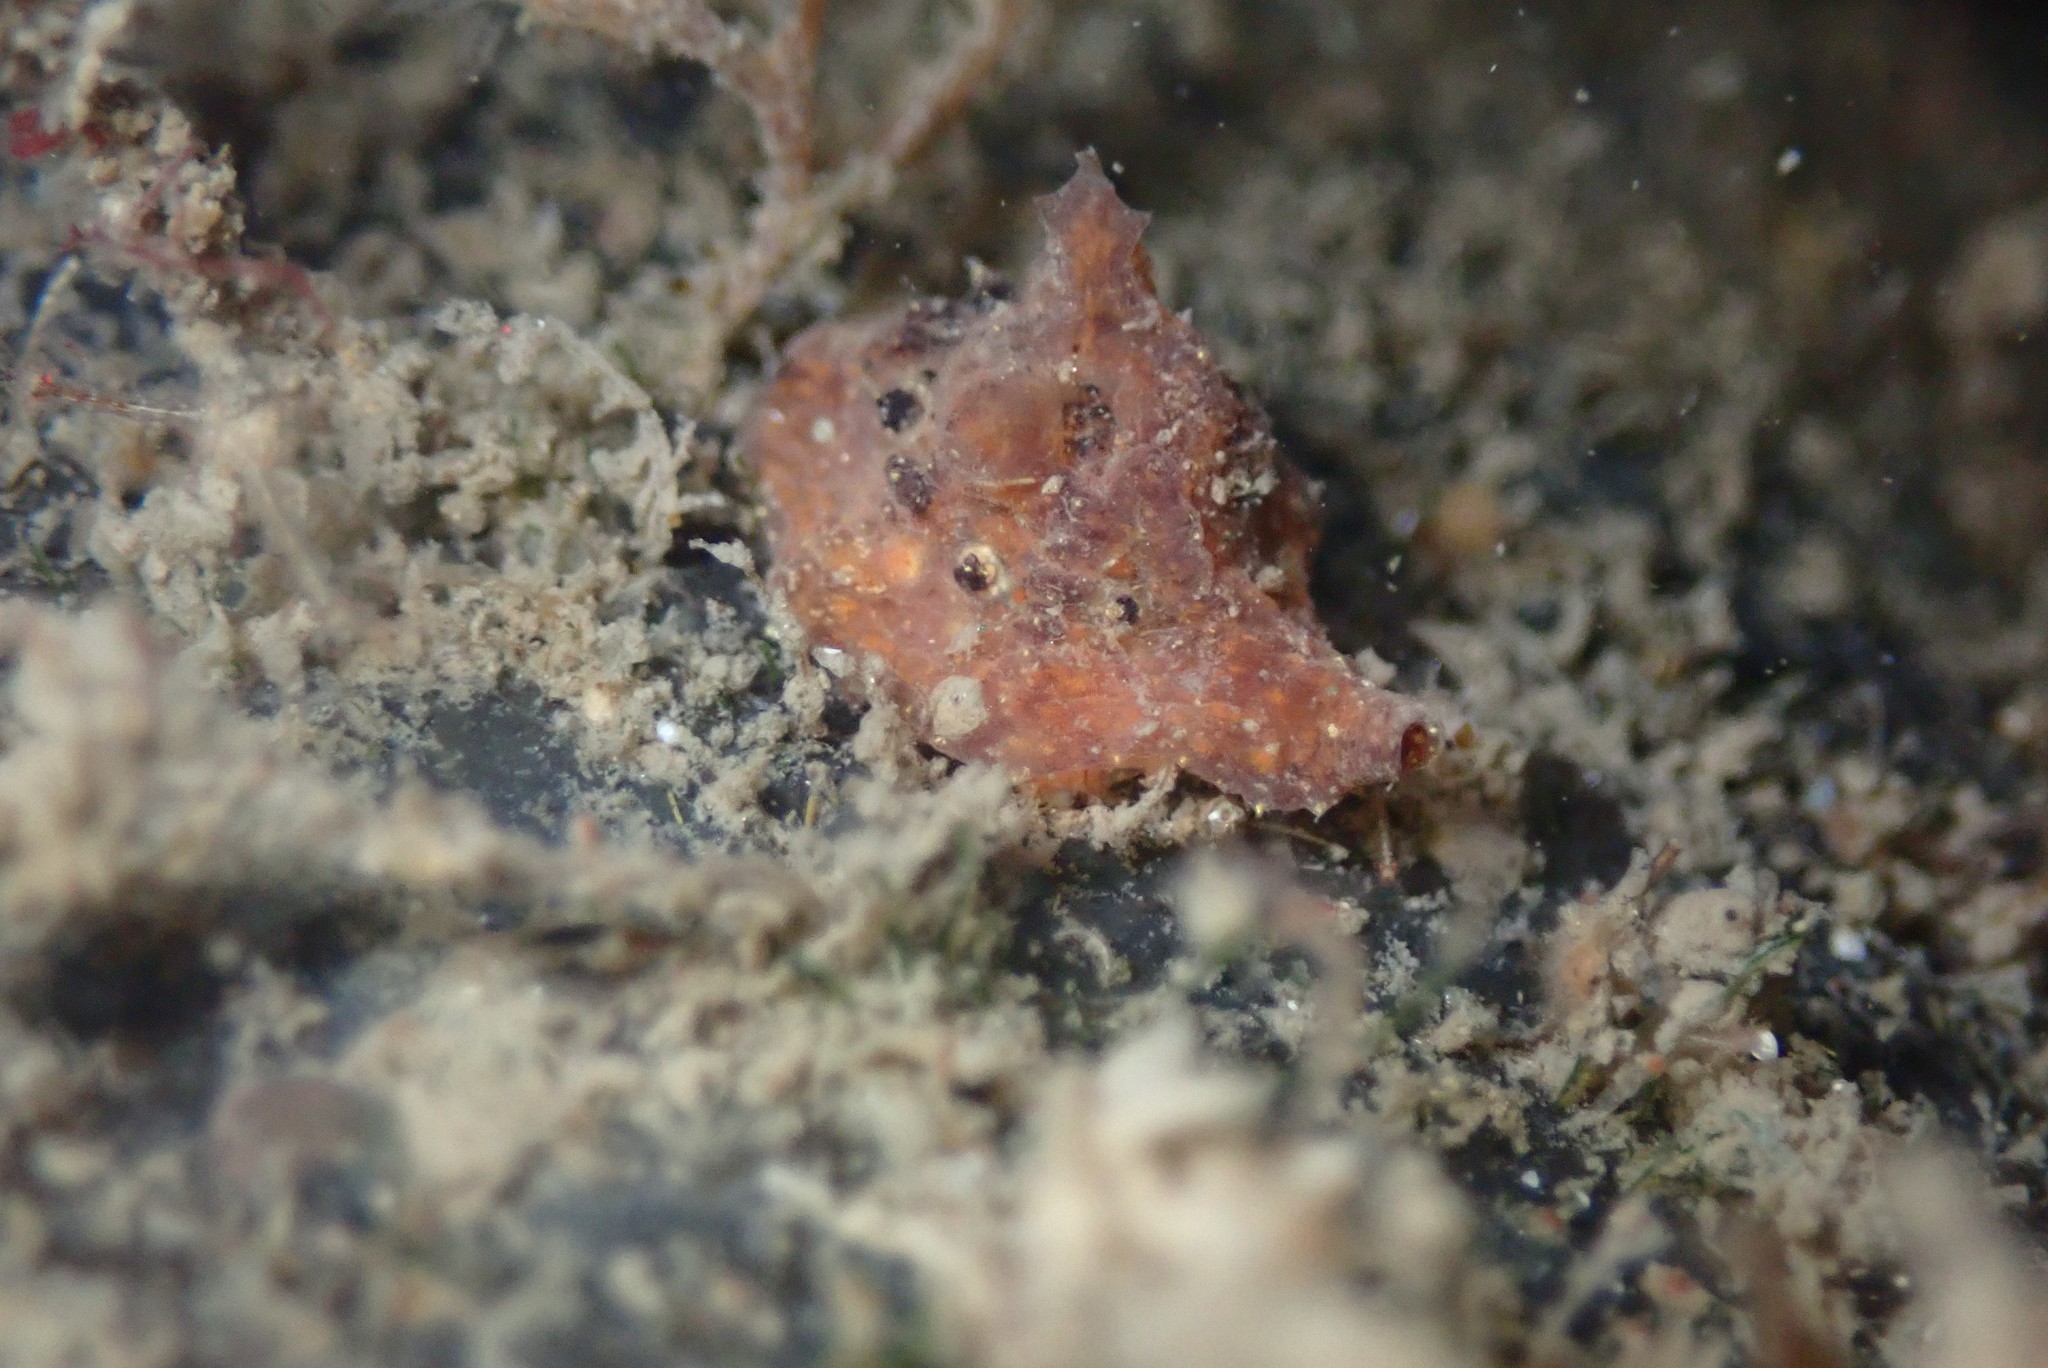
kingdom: Animalia
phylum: Mollusca
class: Gastropoda
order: Littorinimorpha
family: Velutinidae
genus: Hainotis
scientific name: Hainotis sharonae
